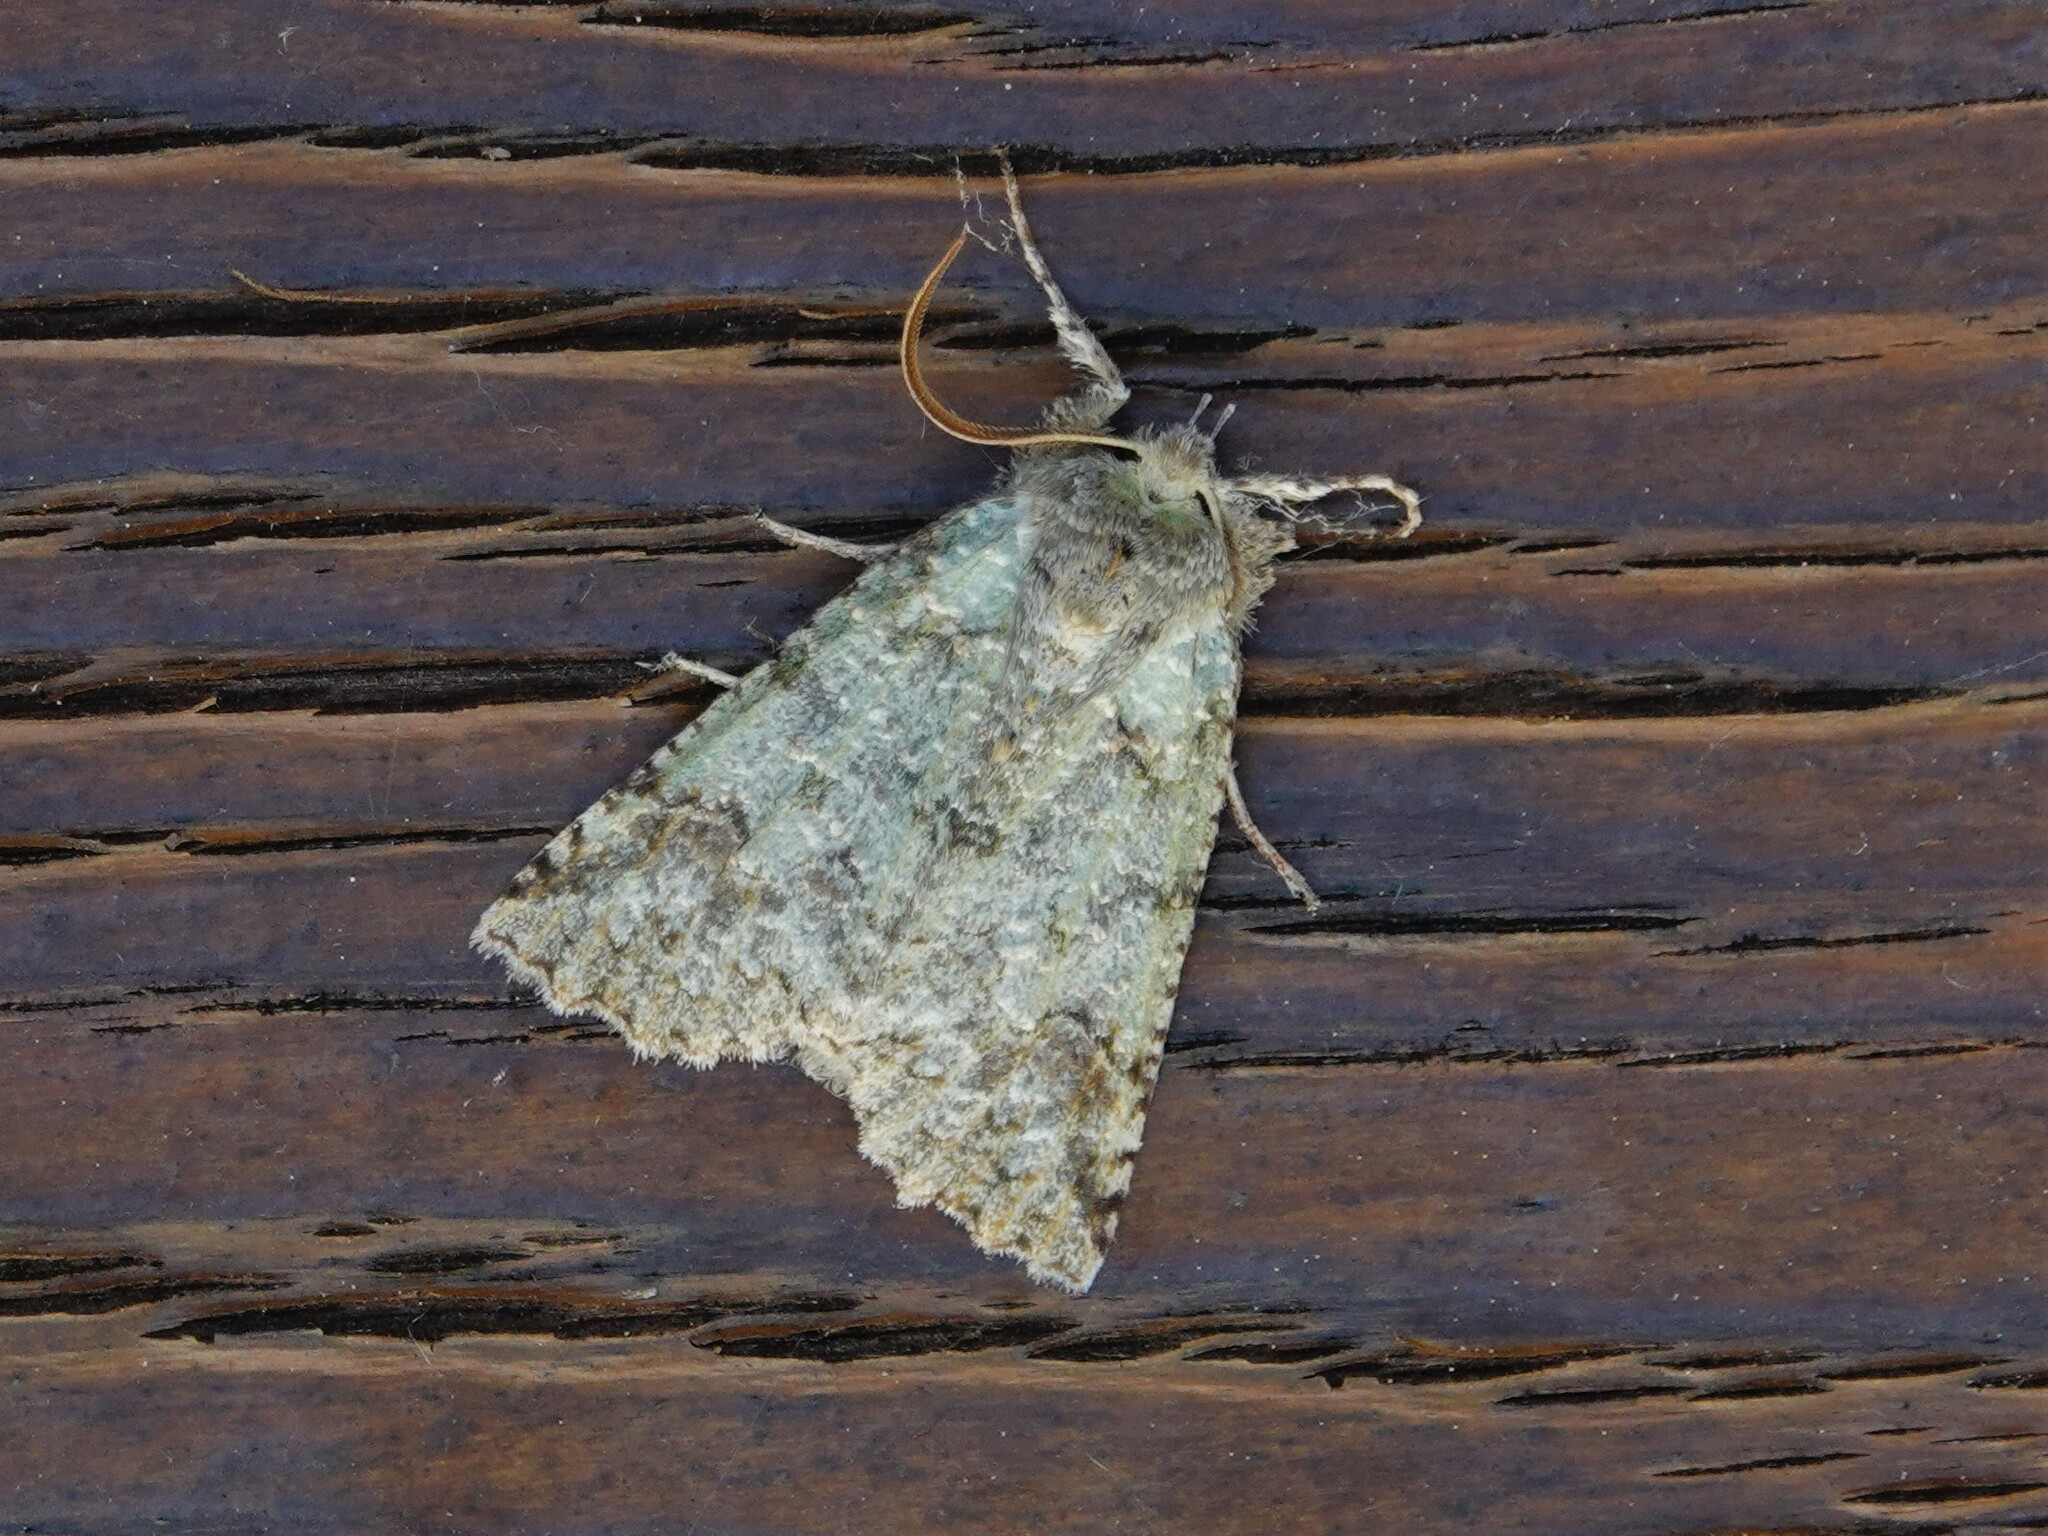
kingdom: Animalia
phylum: Arthropoda
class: Insecta
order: Lepidoptera
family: Geometridae
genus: Declana
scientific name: Declana floccosa
